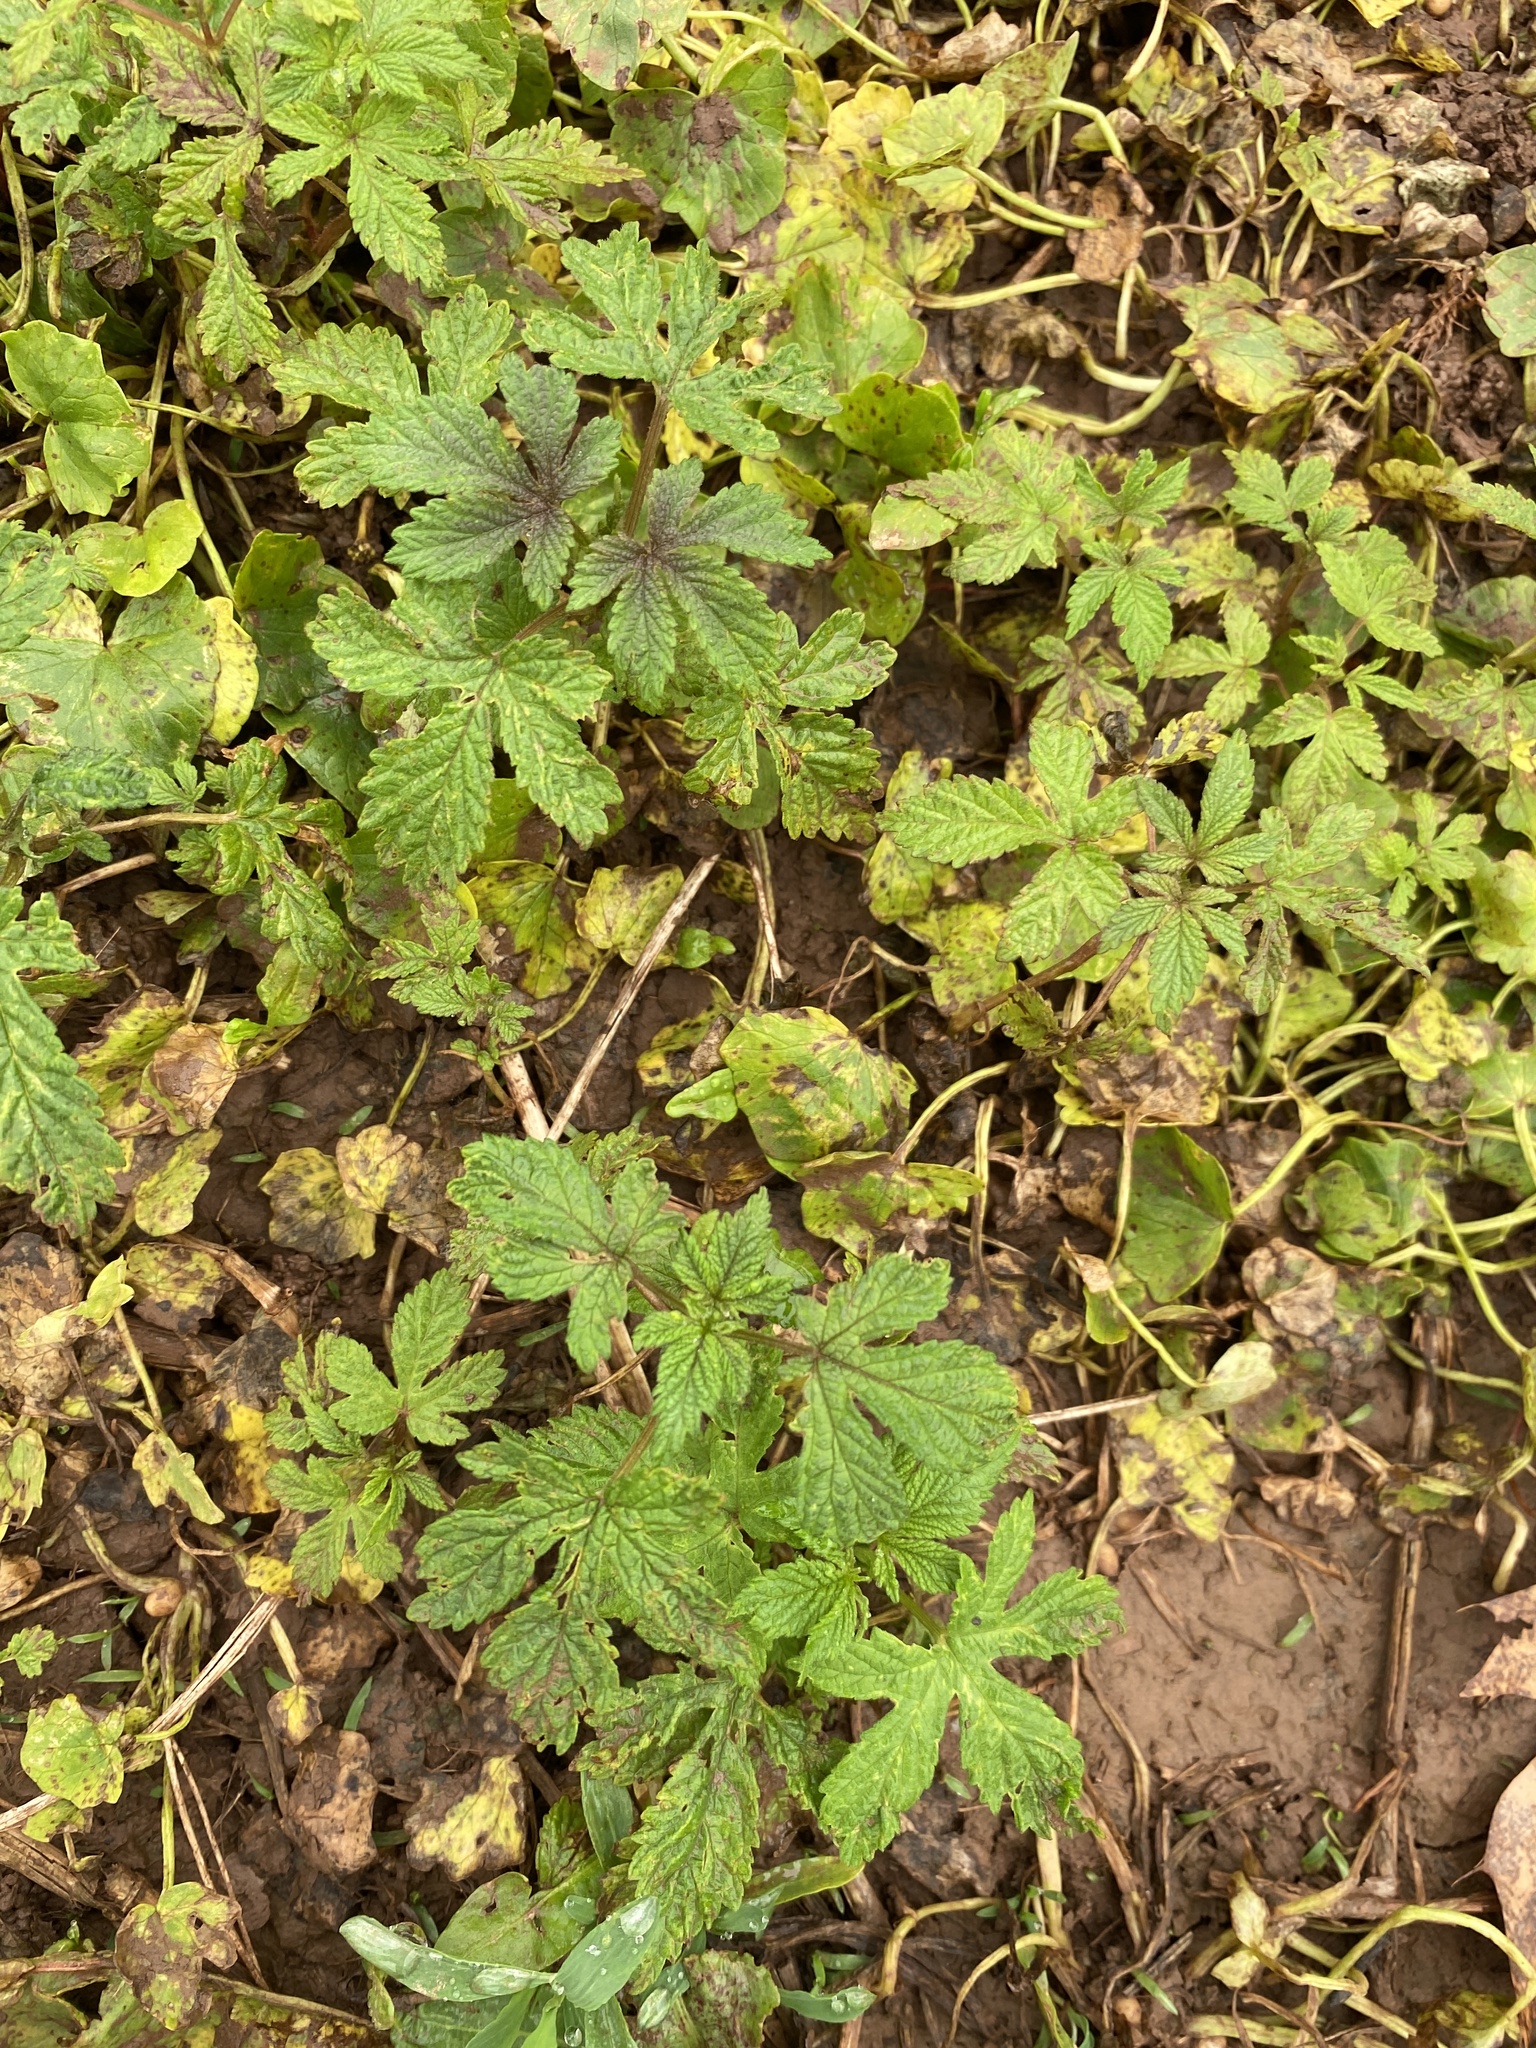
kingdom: Plantae
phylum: Tracheophyta
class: Magnoliopsida
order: Rosales
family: Cannabaceae
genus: Humulus
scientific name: Humulus scandens
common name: Japanese hop
